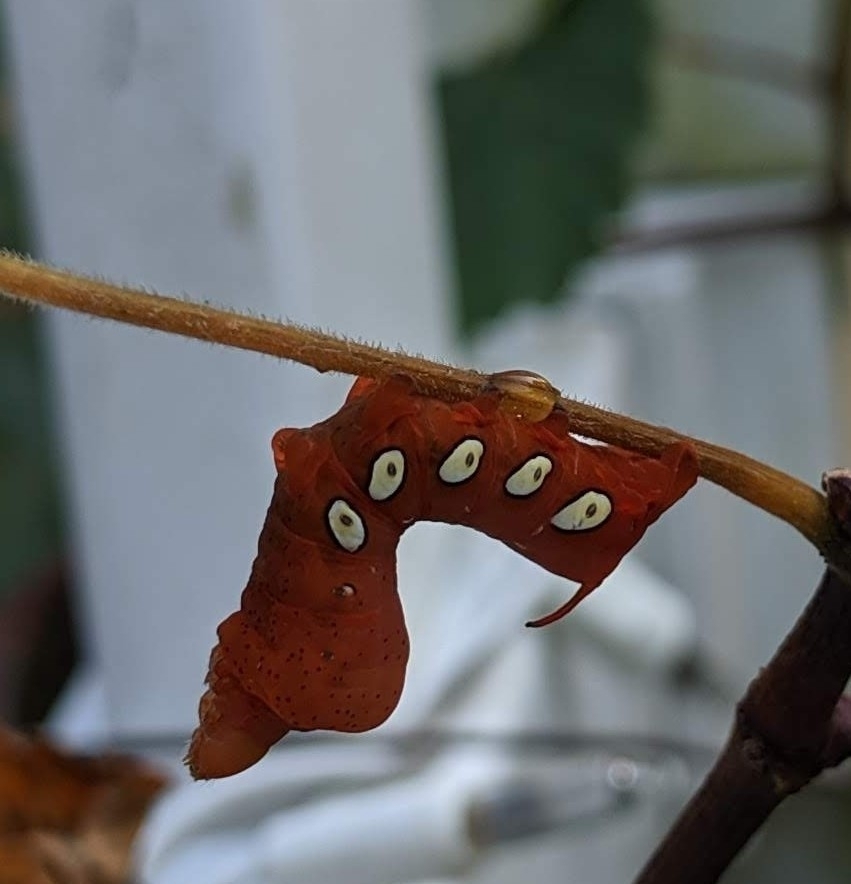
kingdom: Animalia
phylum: Arthropoda
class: Insecta
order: Lepidoptera
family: Sphingidae
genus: Eumorpha
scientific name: Eumorpha pandorus
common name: Pandora sphinx
